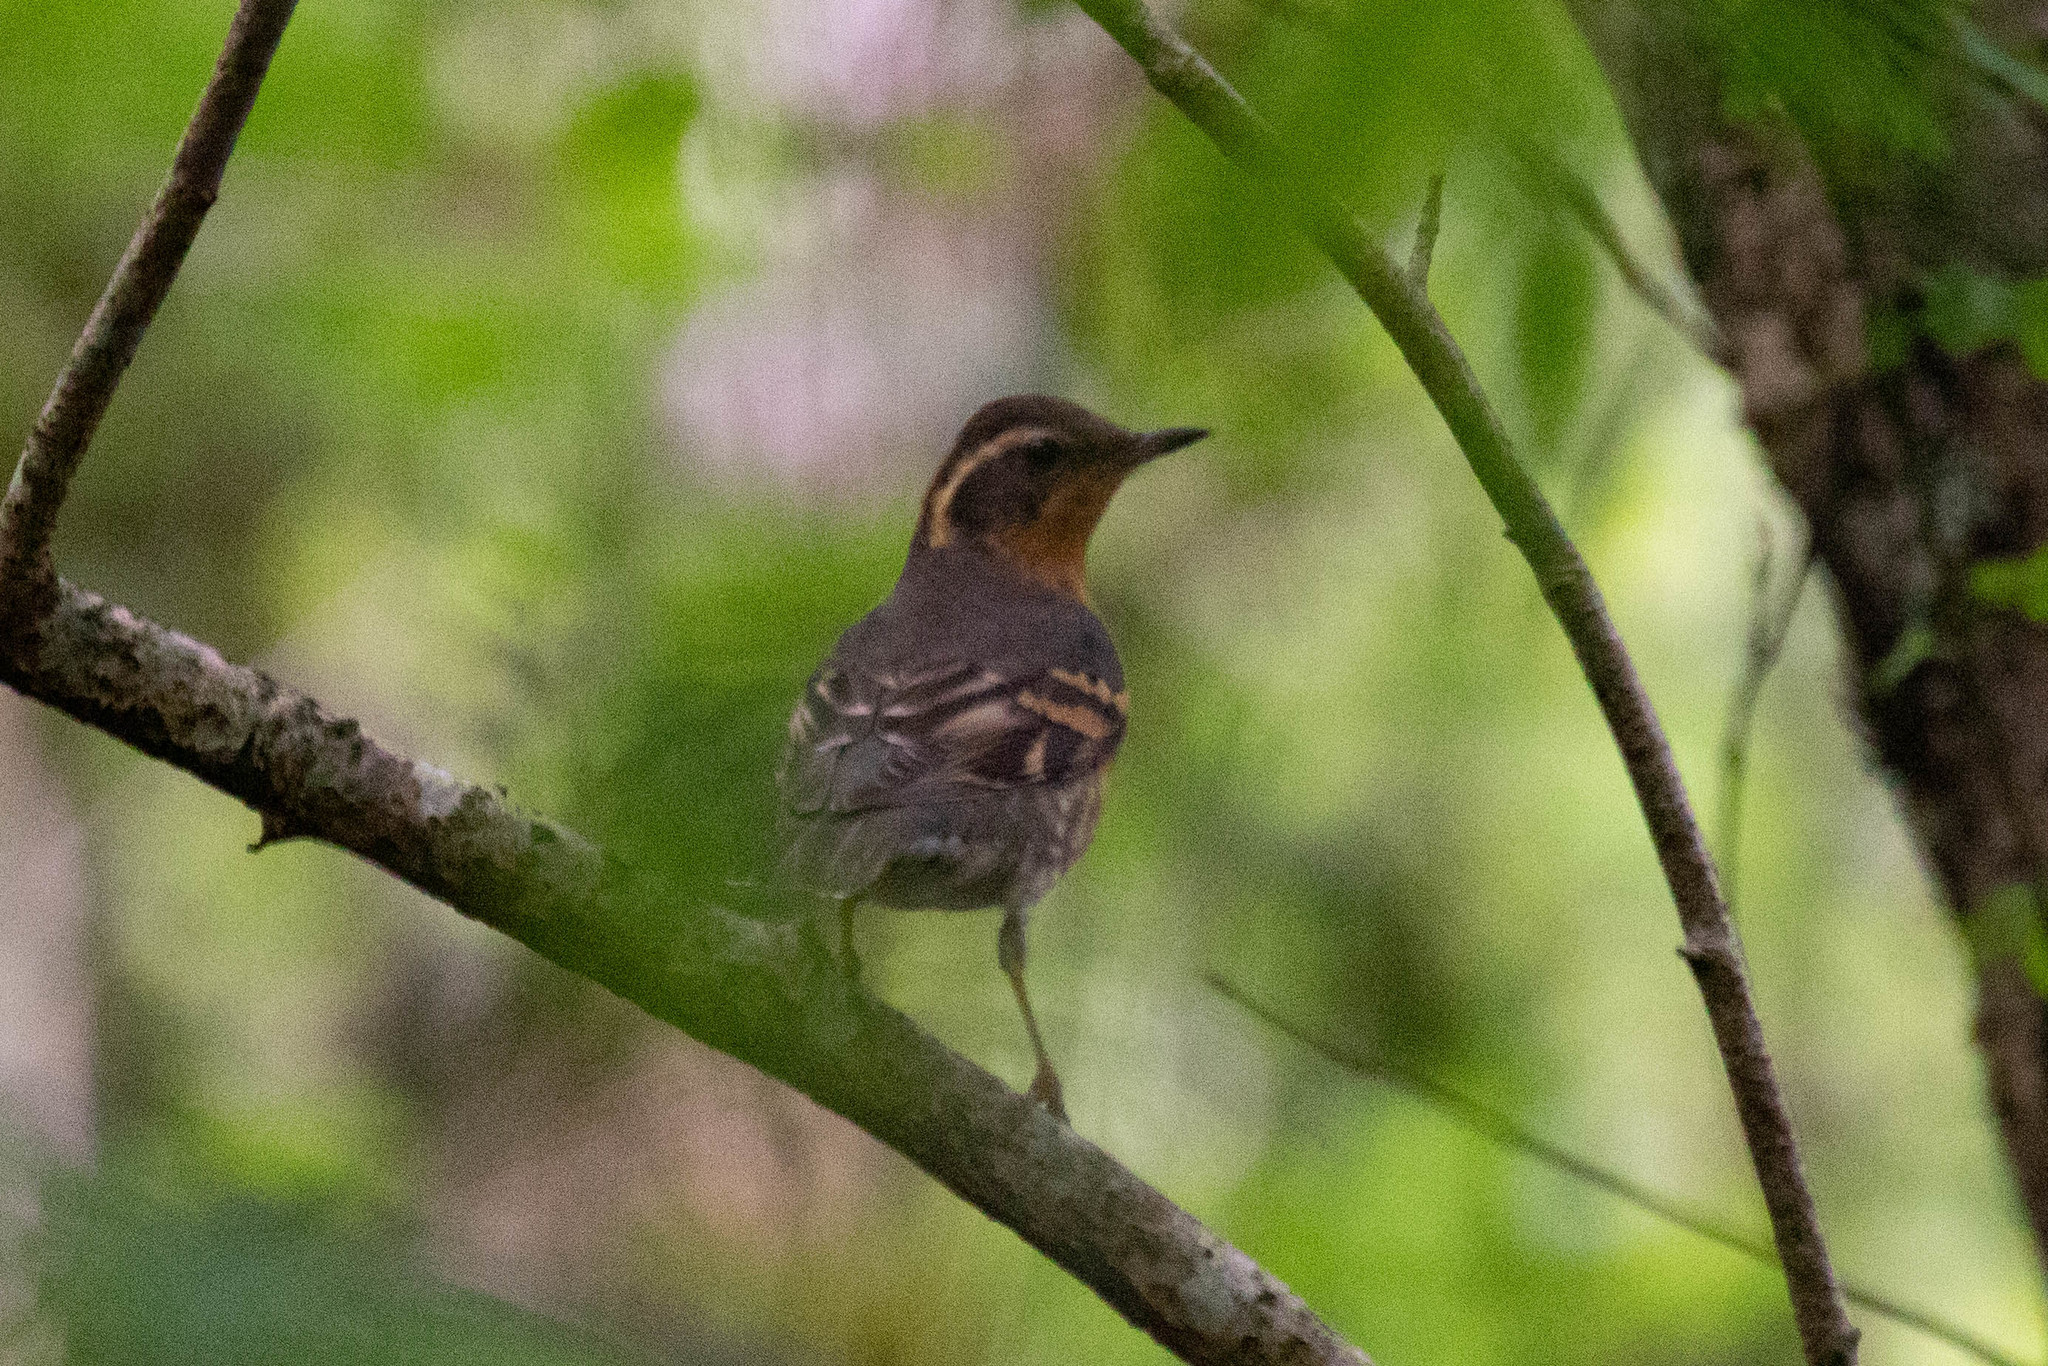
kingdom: Animalia
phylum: Chordata
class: Aves
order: Passeriformes
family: Turdidae
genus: Ixoreus
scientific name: Ixoreus naevius
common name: Varied thrush
